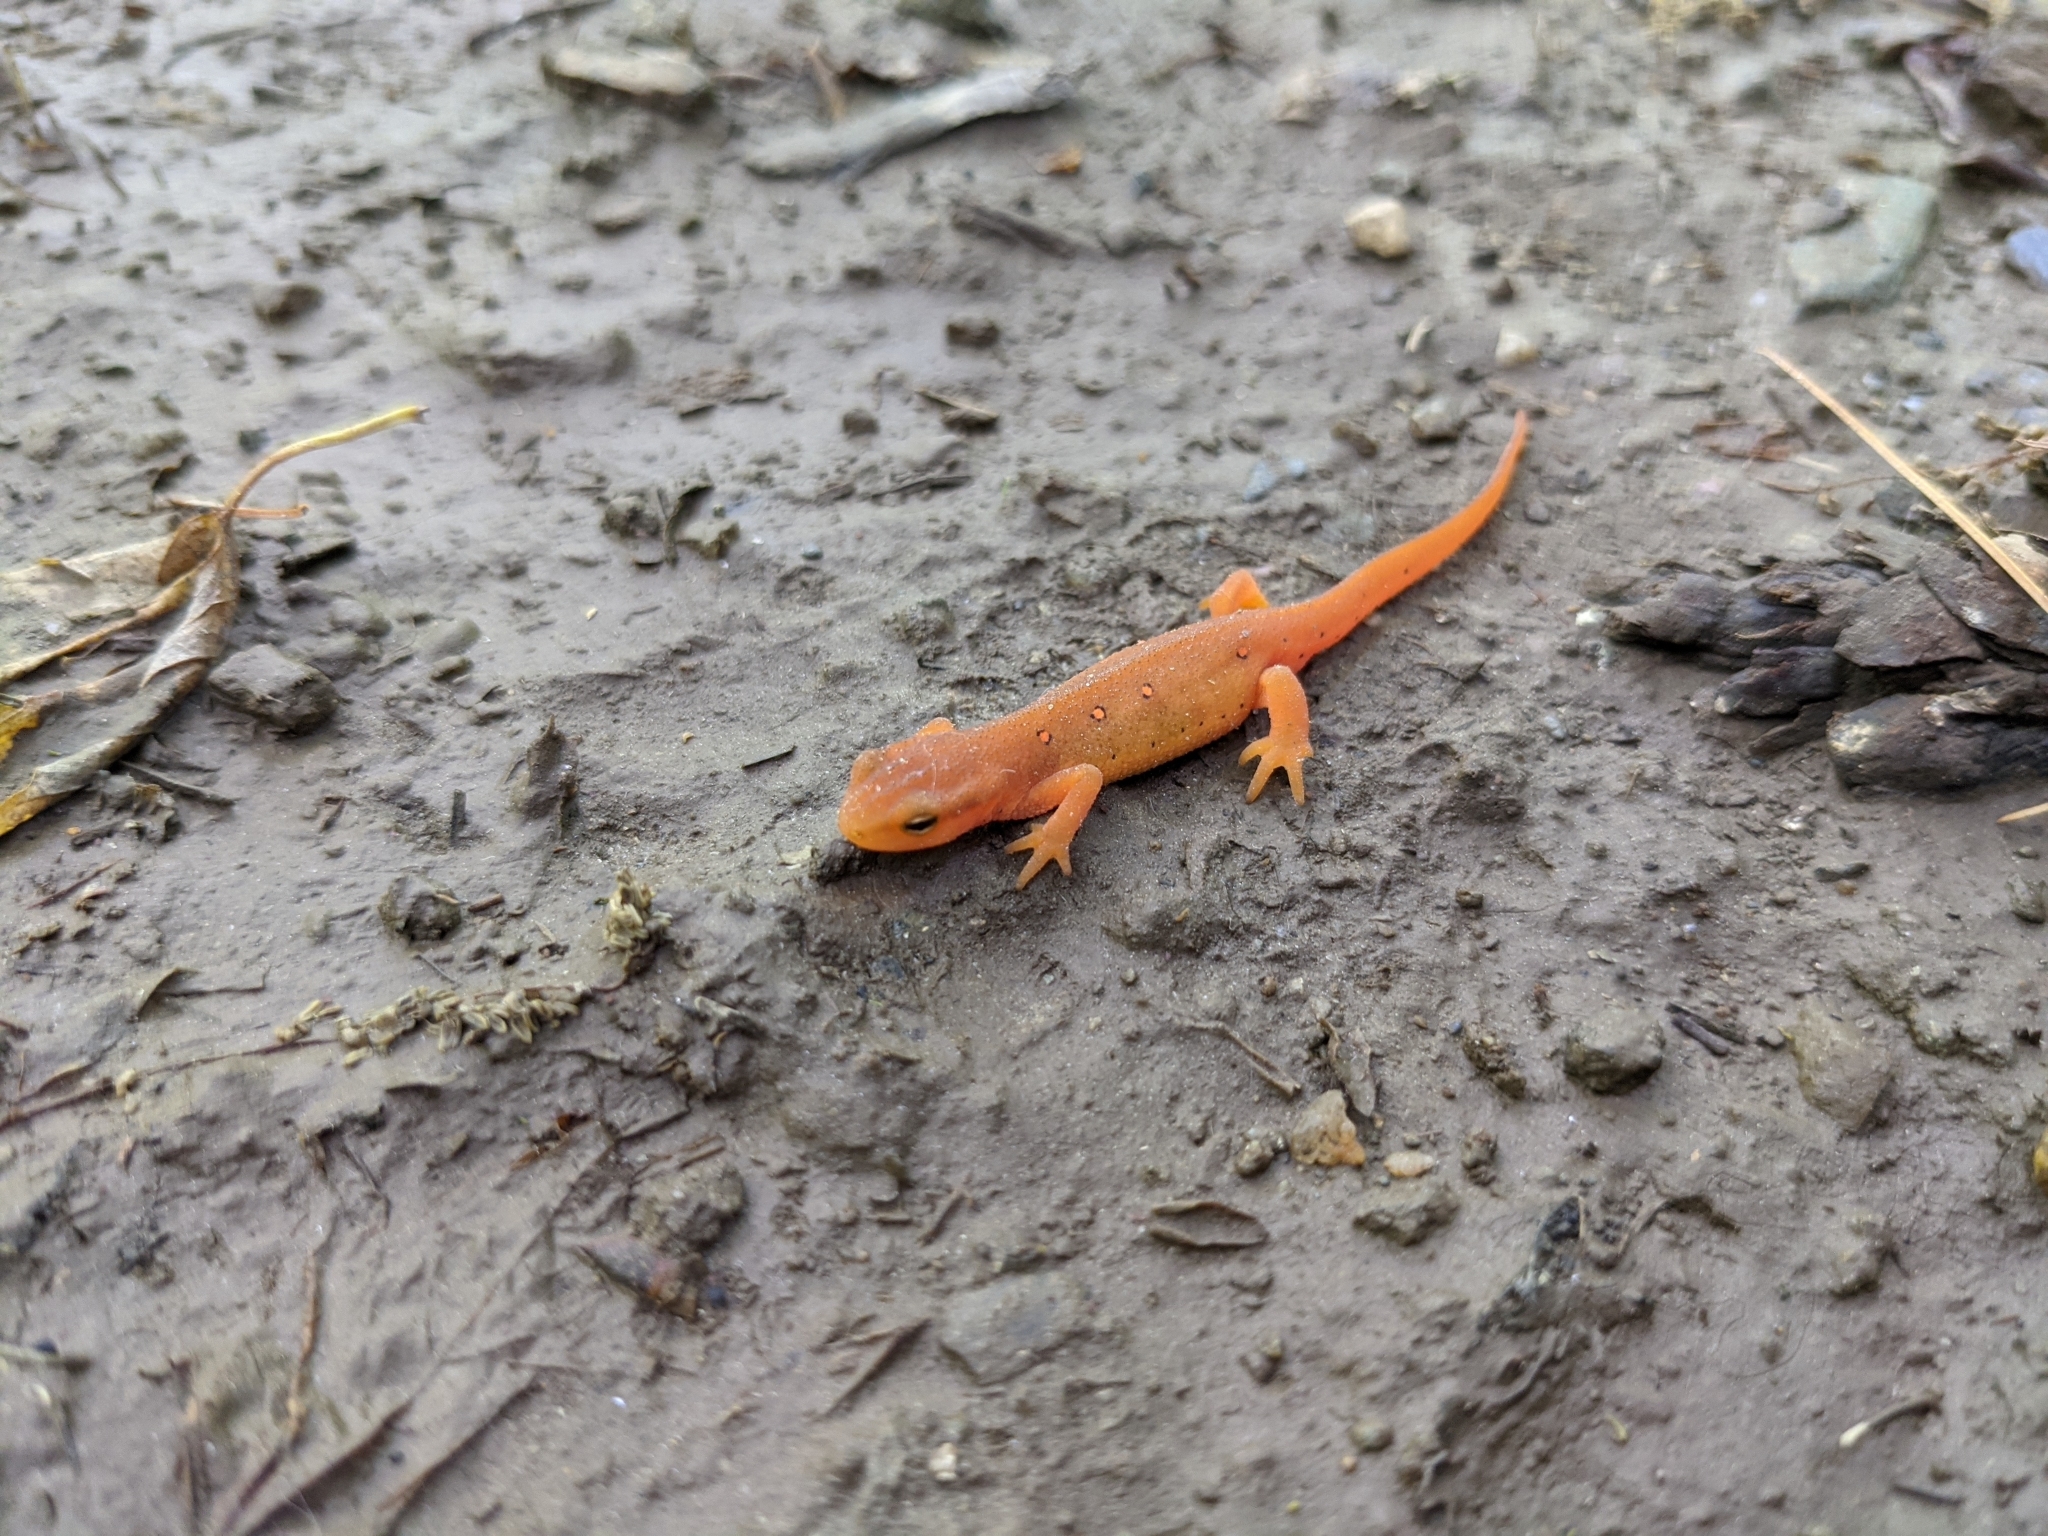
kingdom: Animalia
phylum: Chordata
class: Amphibia
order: Caudata
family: Salamandridae
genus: Notophthalmus
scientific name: Notophthalmus viridescens
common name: Eastern newt
